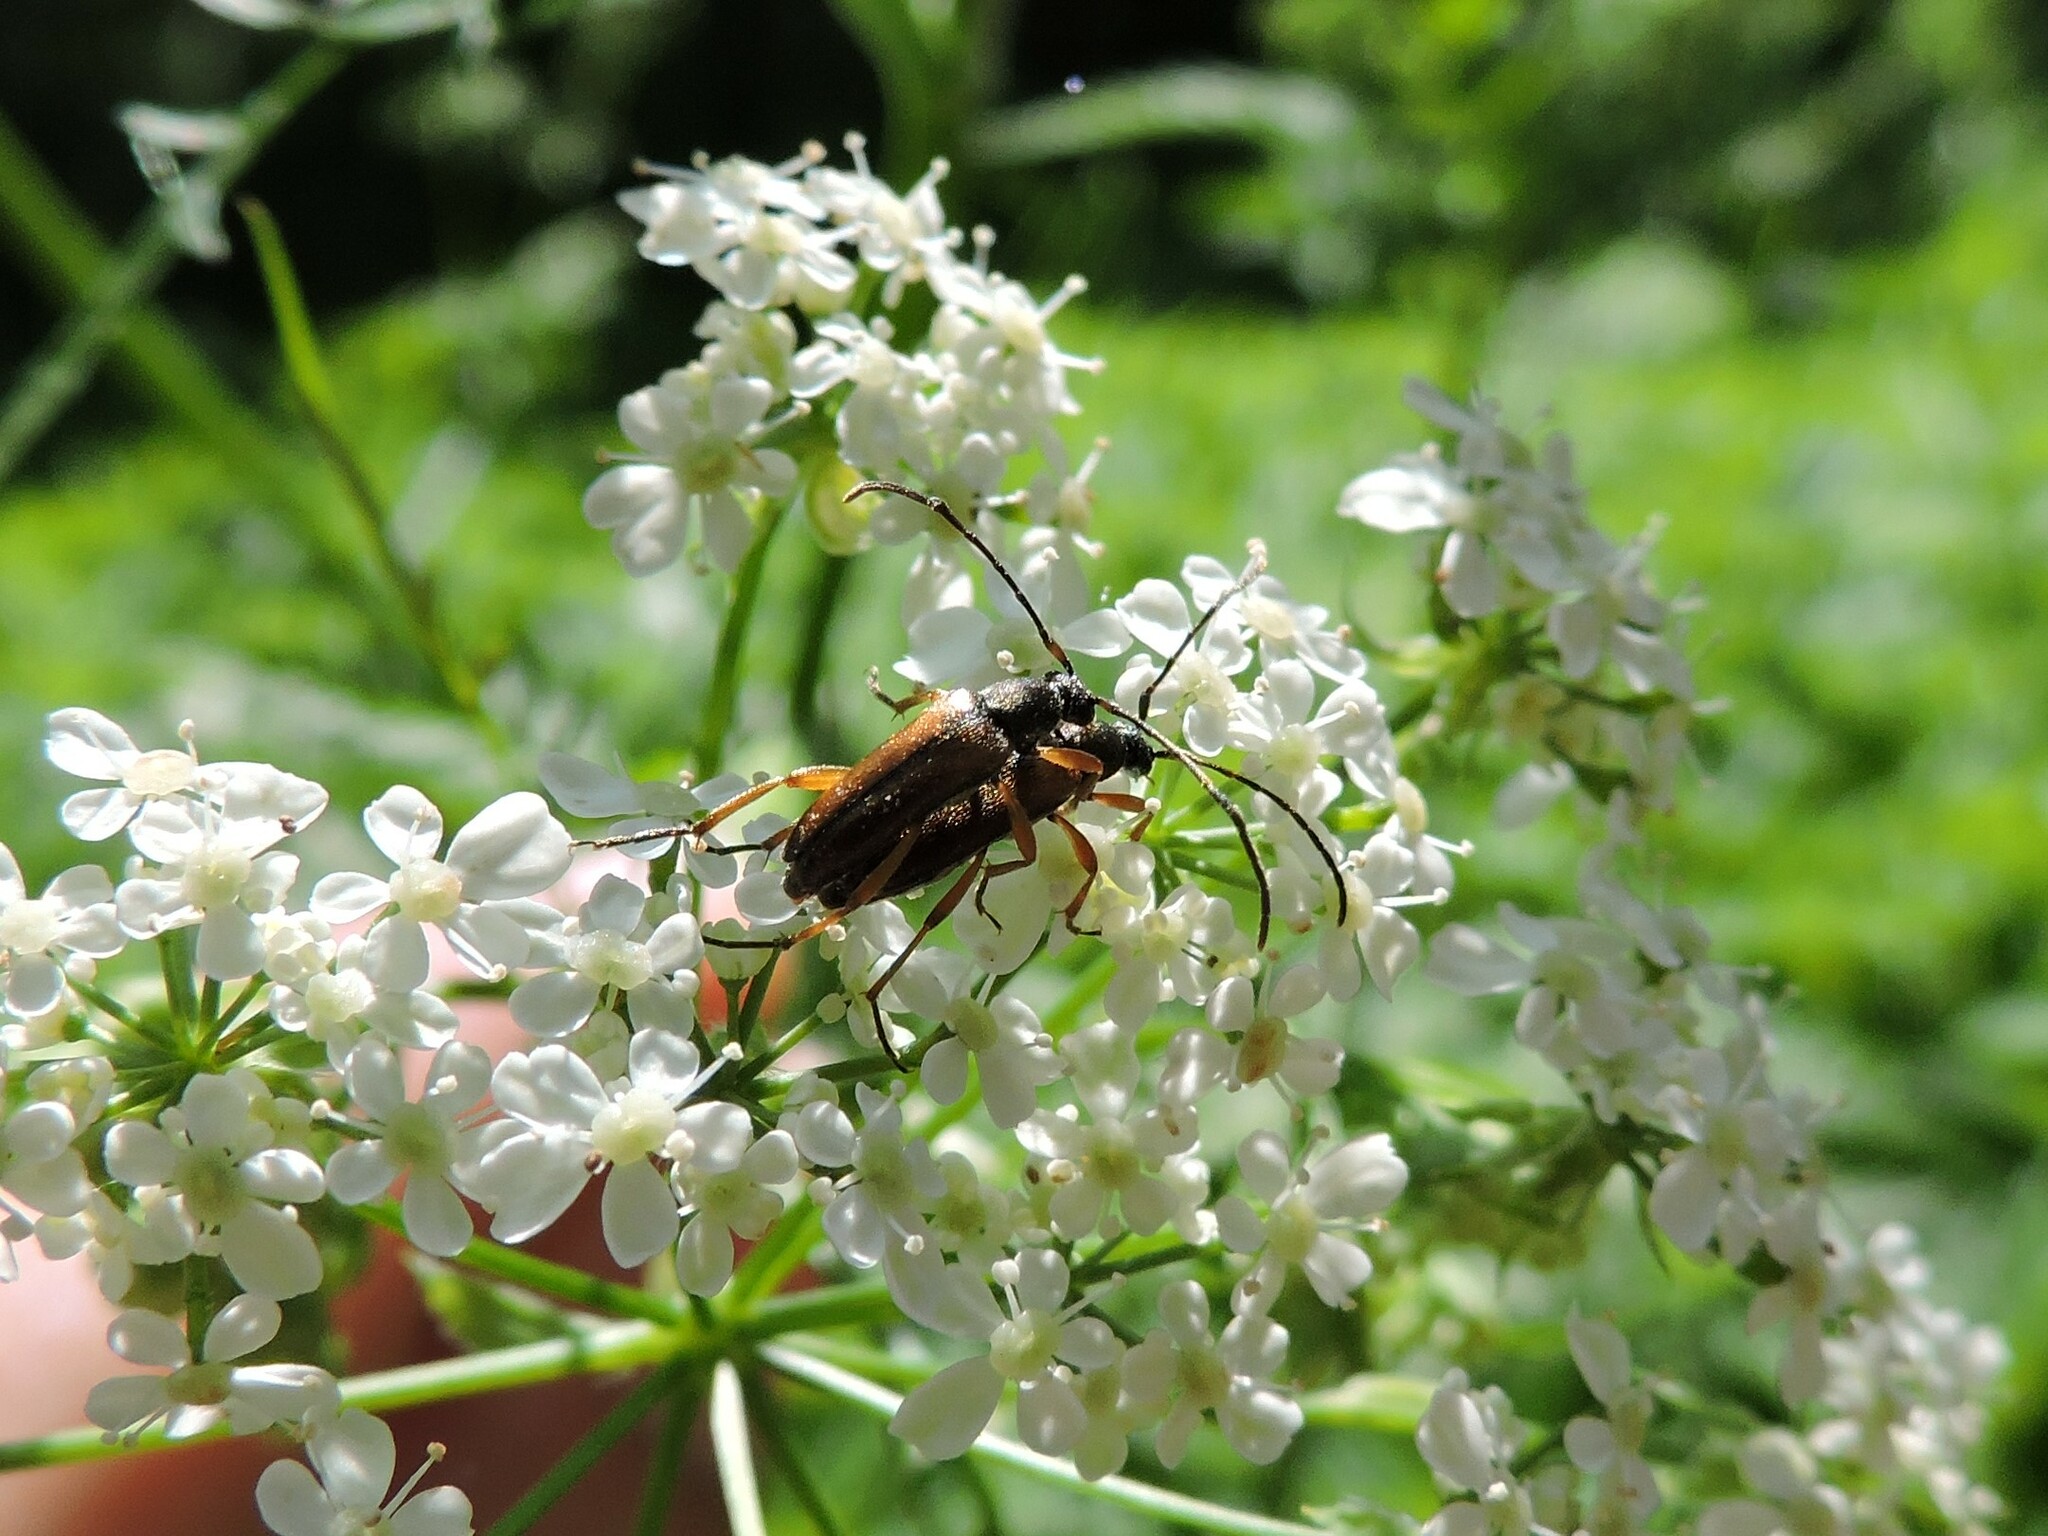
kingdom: Animalia
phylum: Arthropoda
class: Insecta
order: Coleoptera
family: Cerambycidae
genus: Alosterna
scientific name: Alosterna tabacicolor
